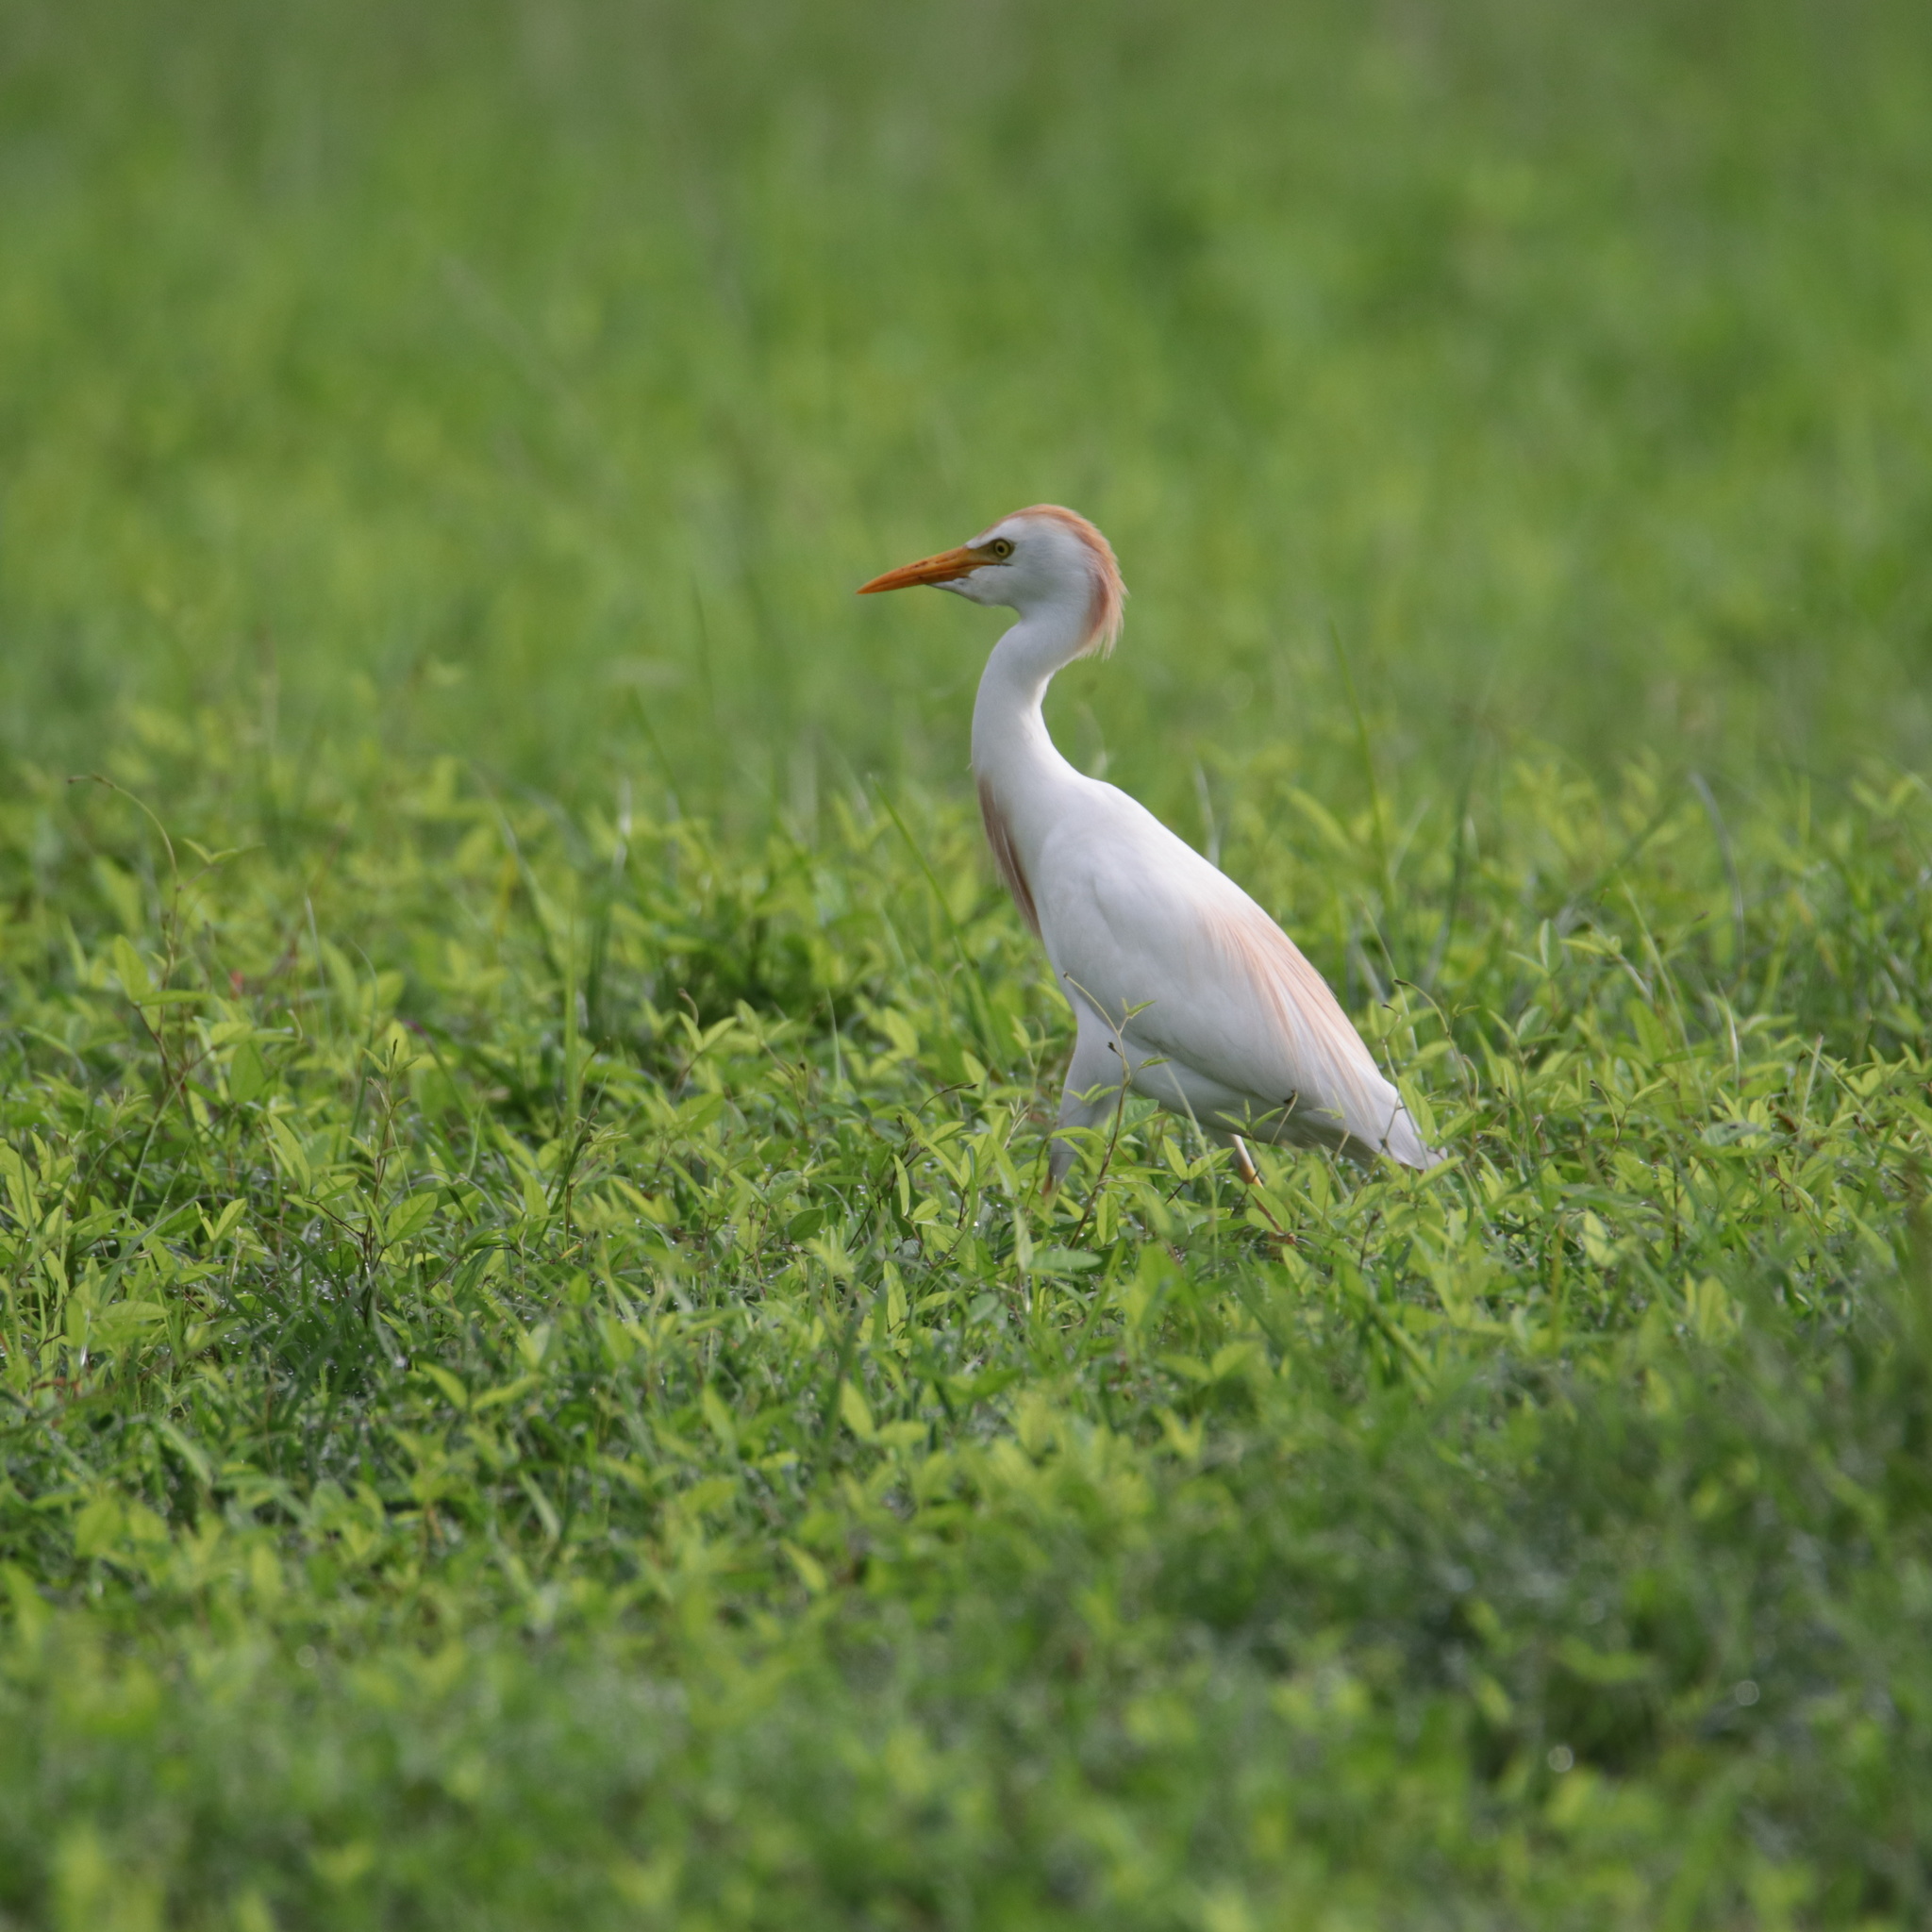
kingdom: Animalia
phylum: Chordata
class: Aves
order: Pelecaniformes
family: Ardeidae
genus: Bubulcus
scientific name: Bubulcus ibis
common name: Cattle egret
